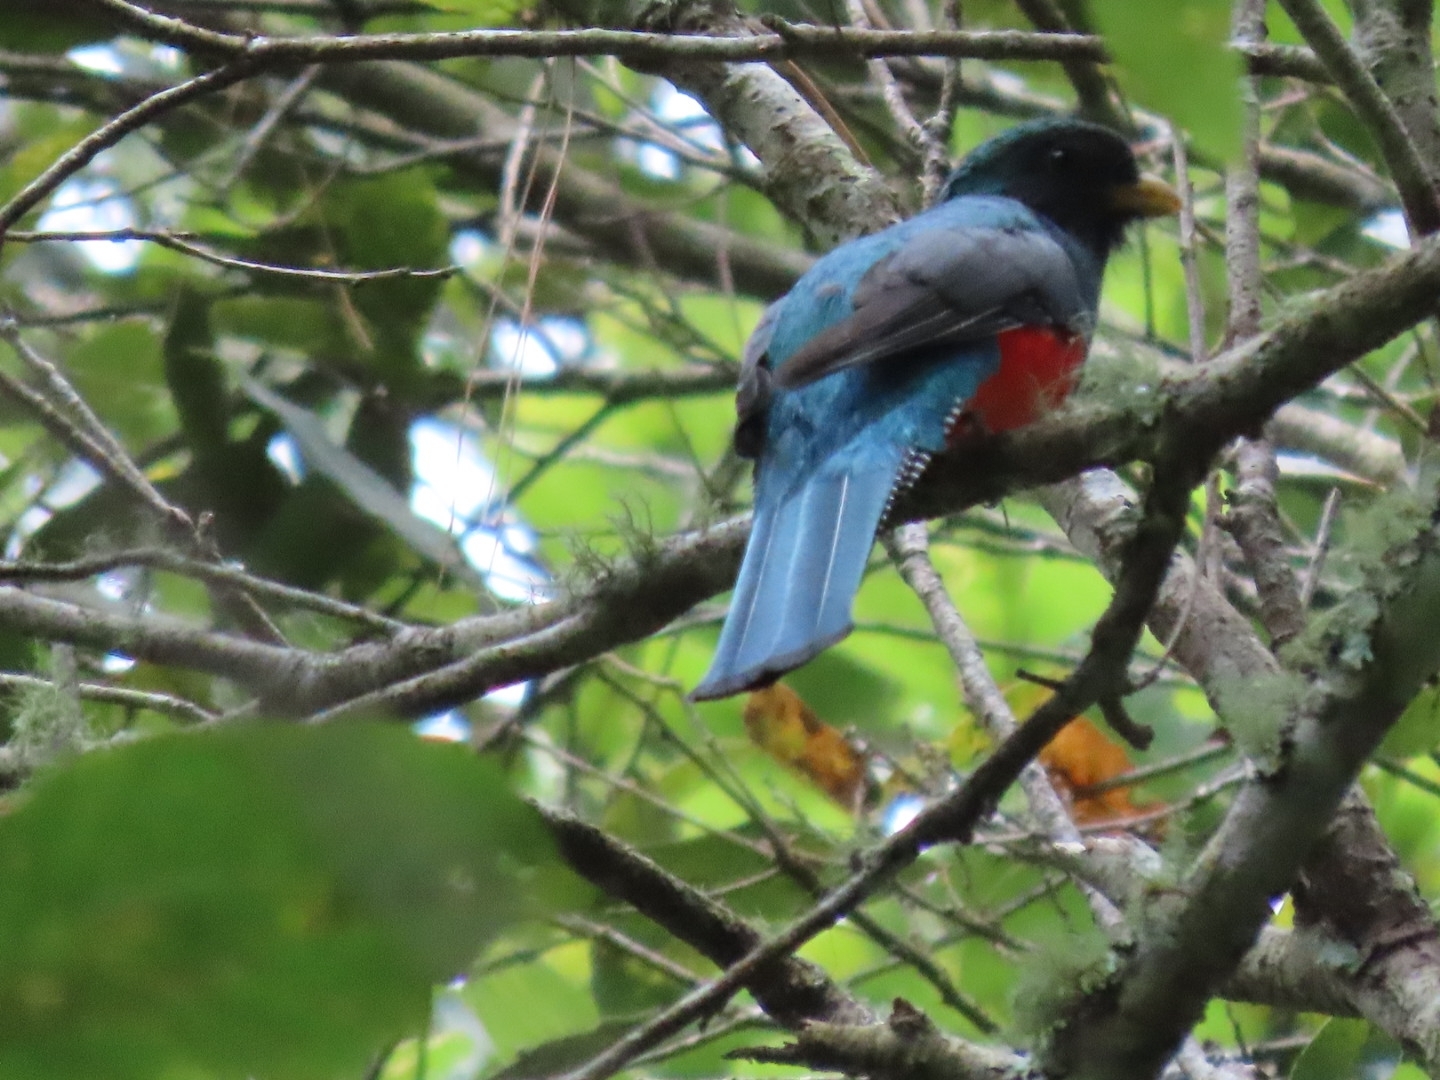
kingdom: Animalia
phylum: Chordata
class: Aves
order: Trogoniformes
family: Trogonidae
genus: Trogon
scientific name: Trogon collaris
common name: Collared trogon
